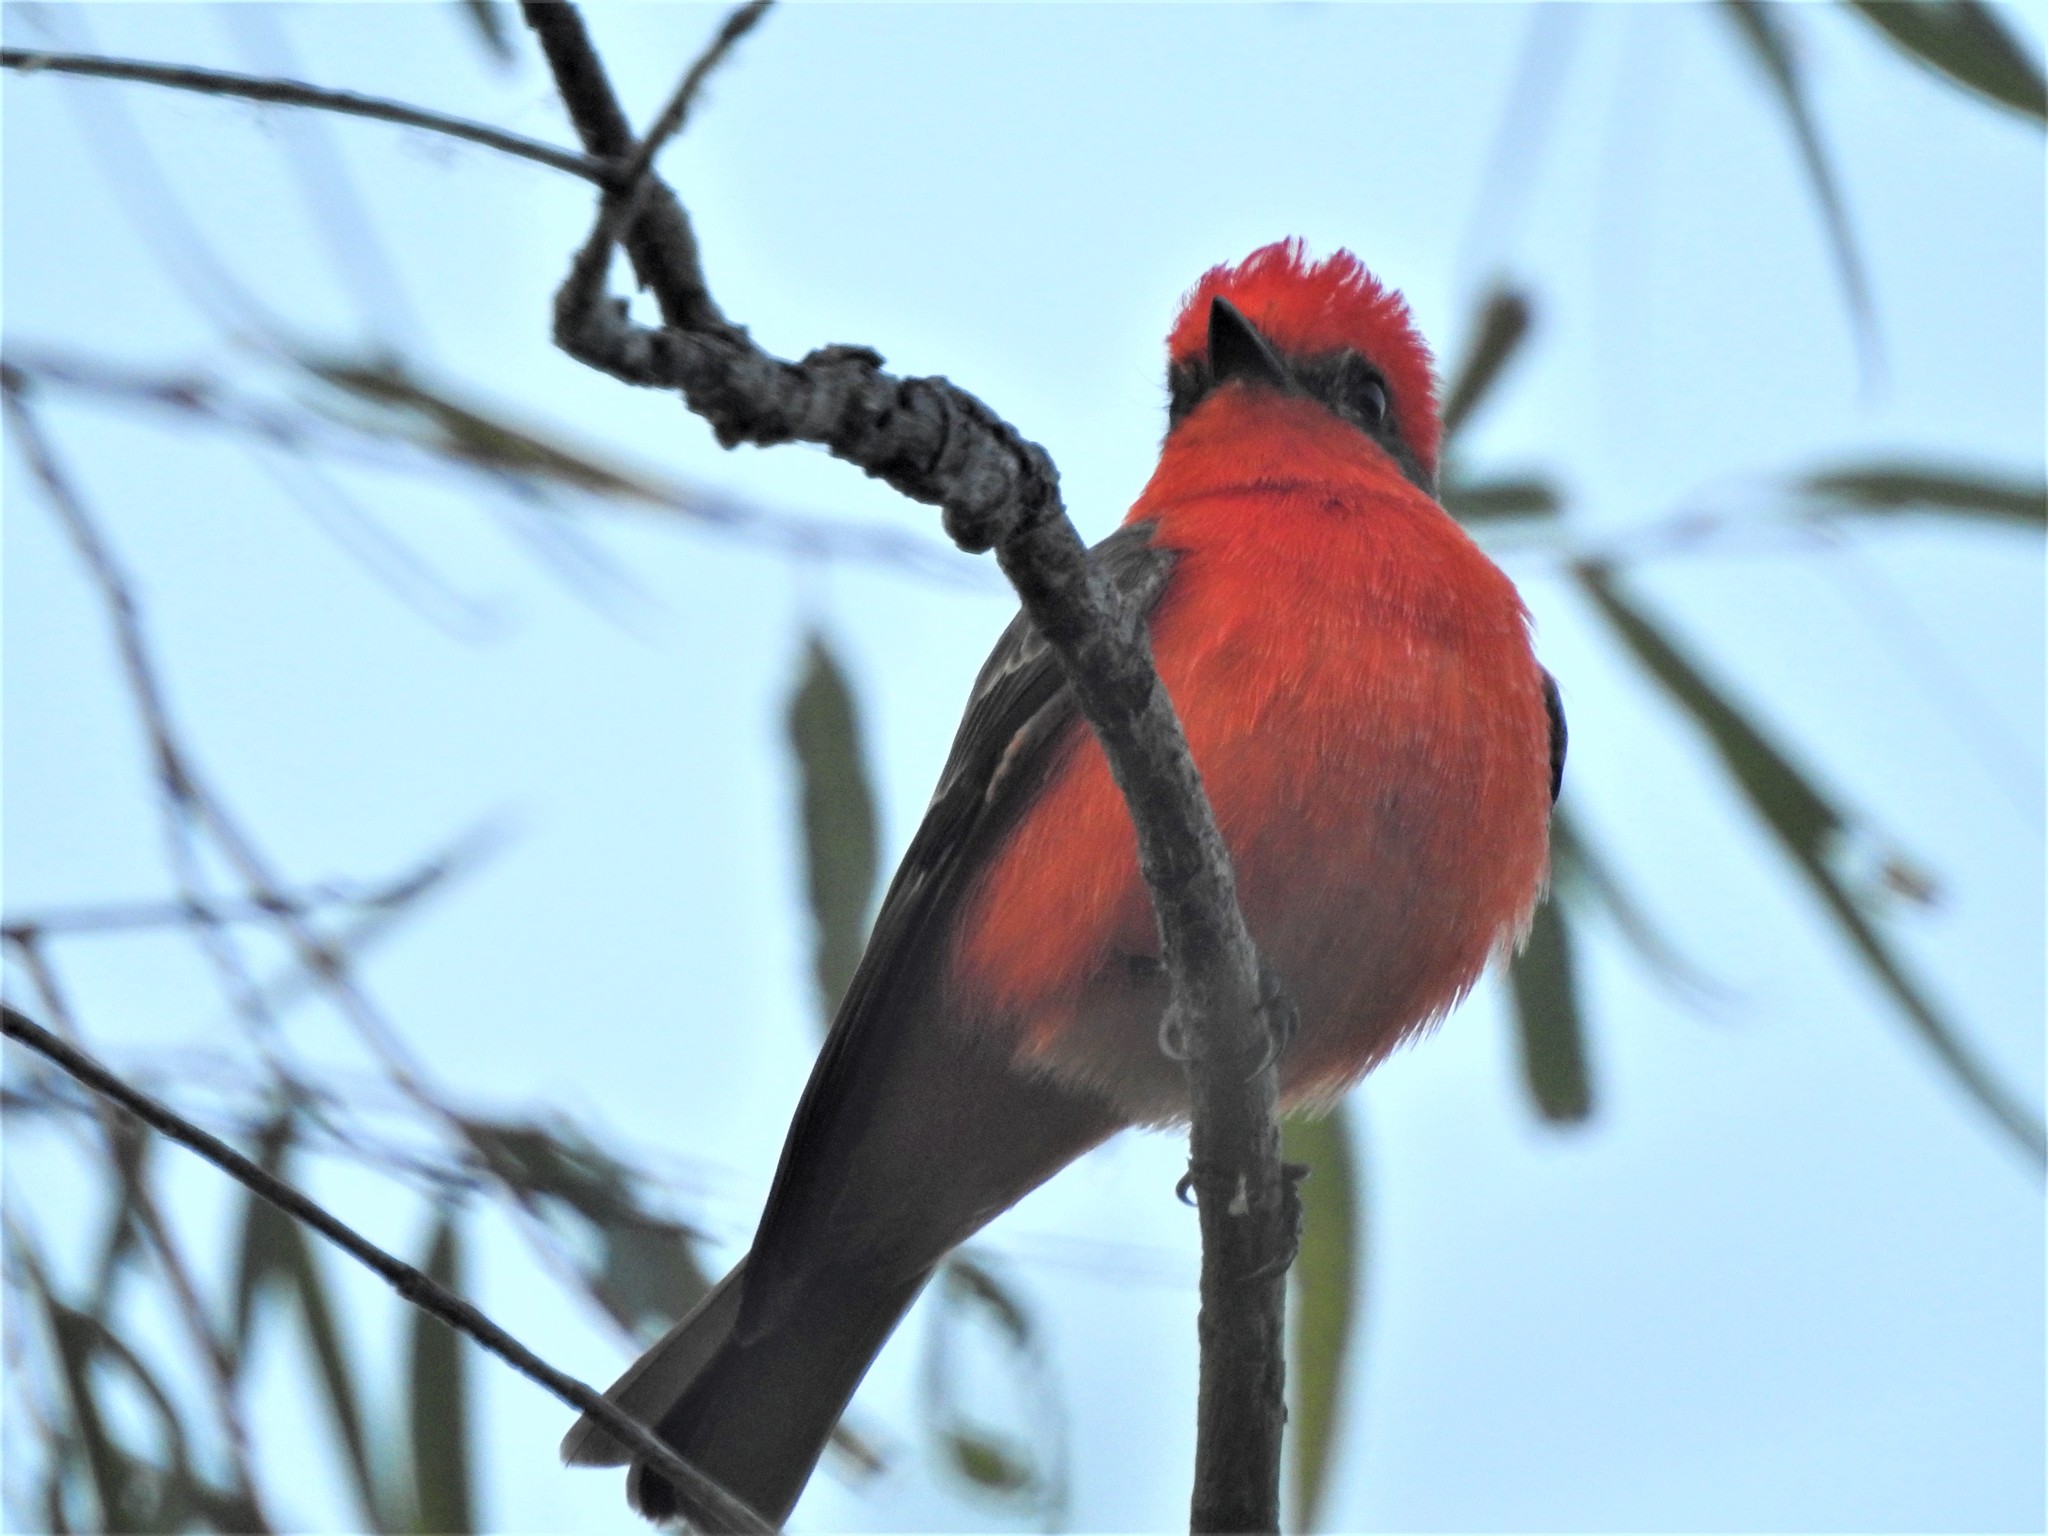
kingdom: Animalia
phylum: Chordata
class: Aves
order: Passeriformes
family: Tyrannidae
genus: Pyrocephalus
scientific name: Pyrocephalus rubinus
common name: Vermilion flycatcher
